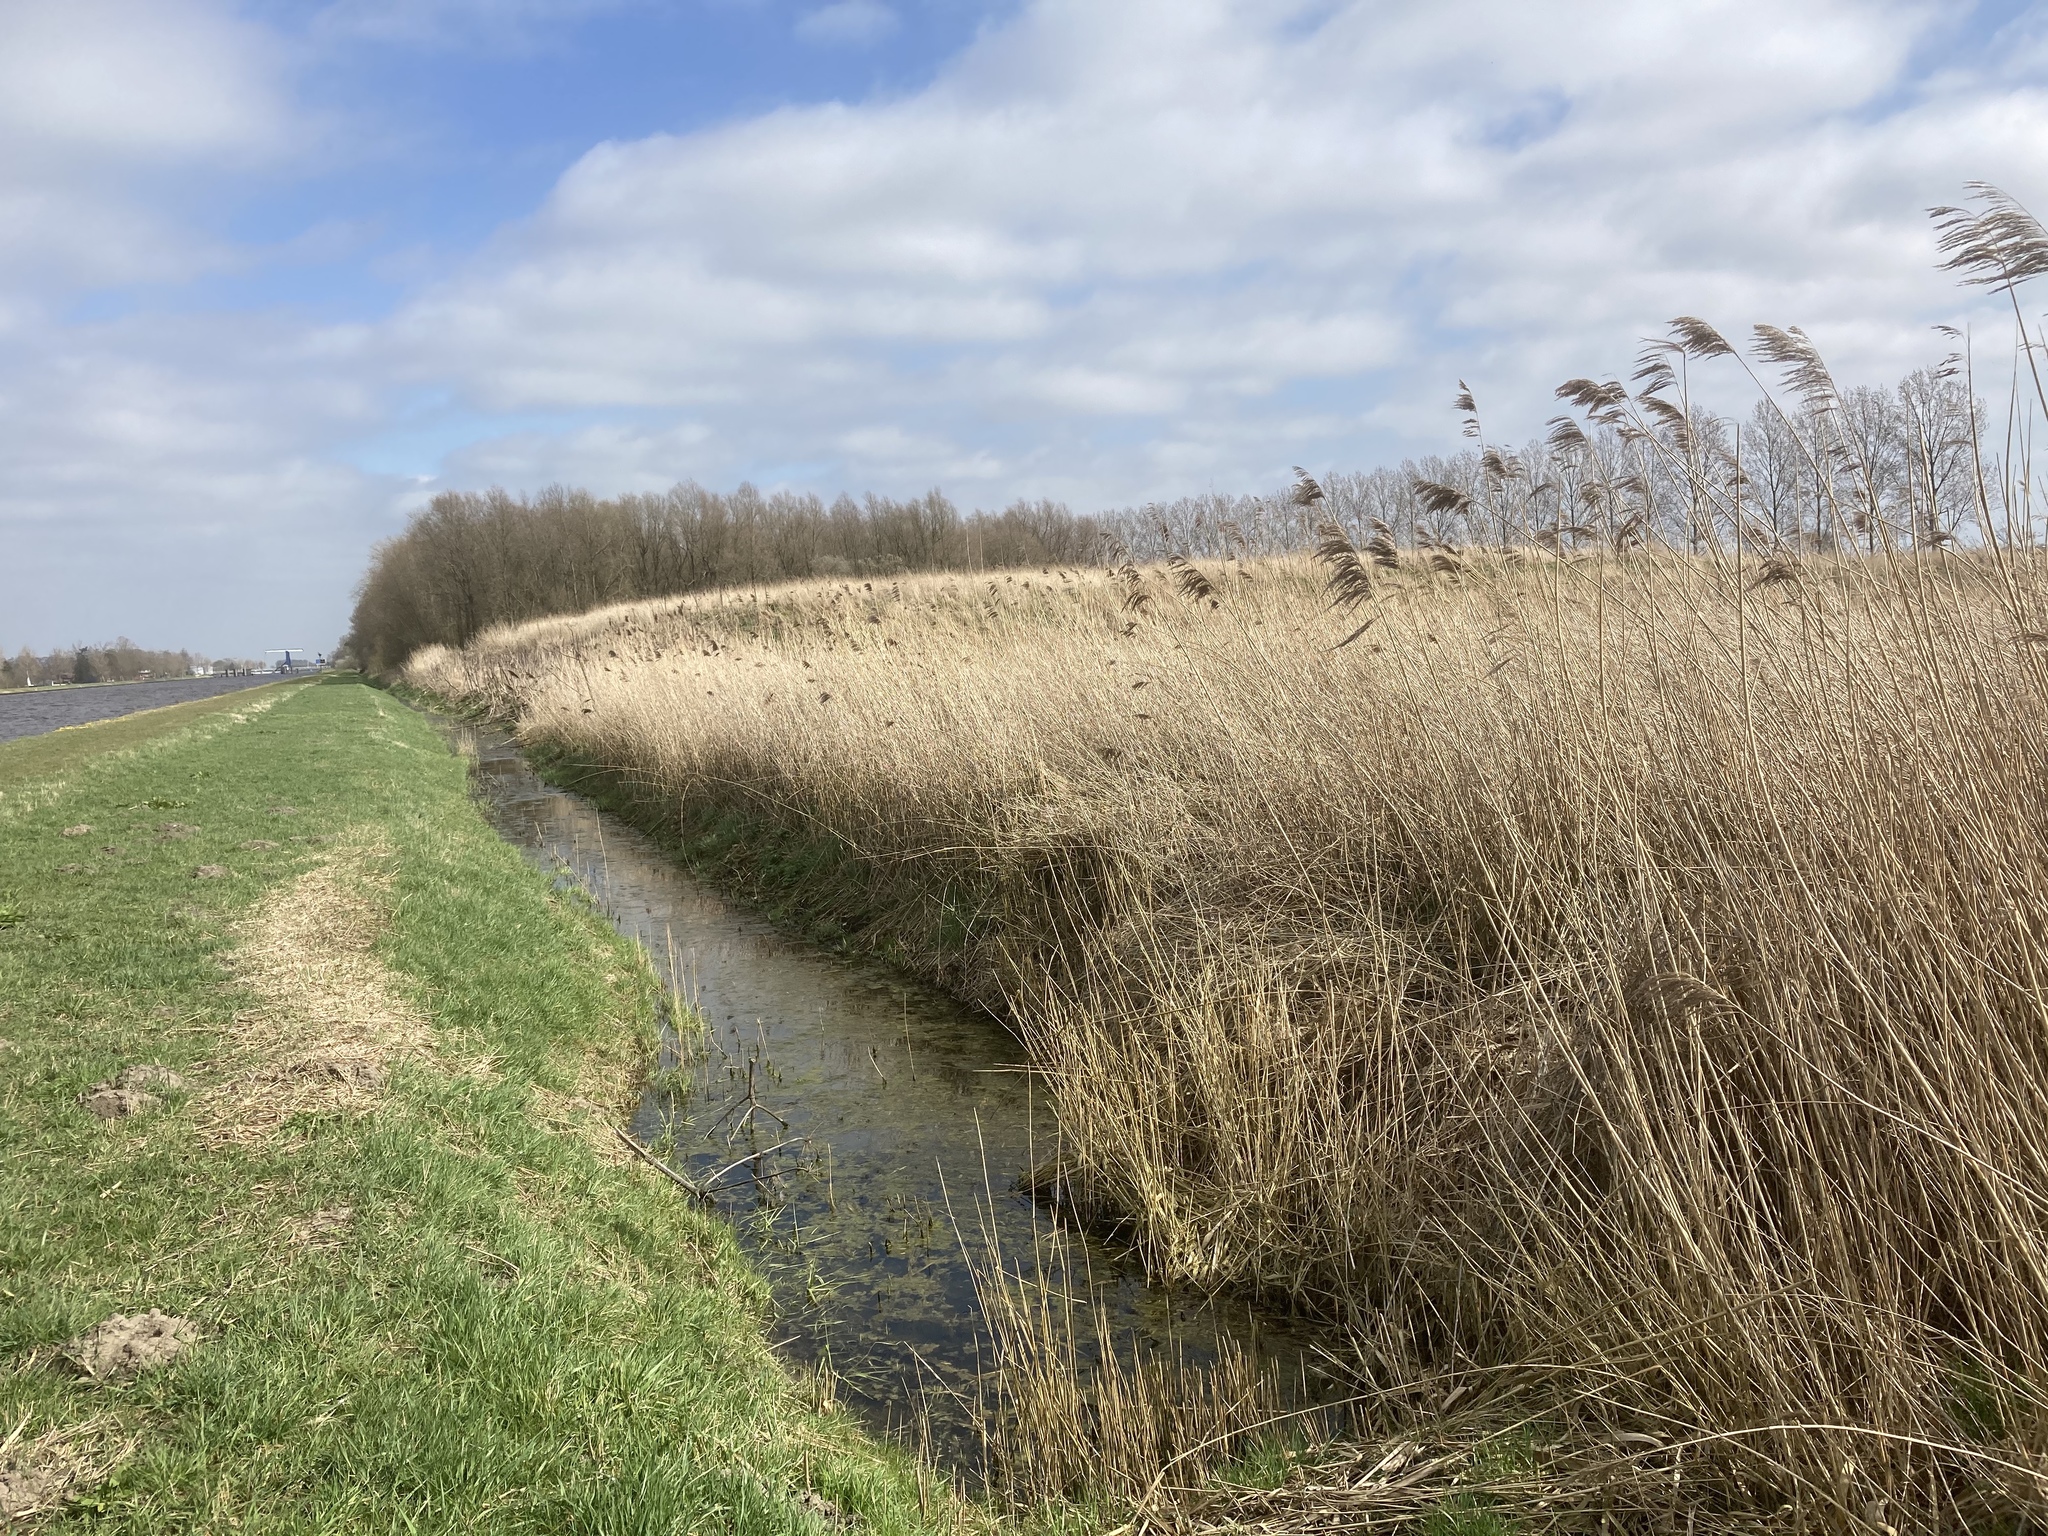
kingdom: Plantae
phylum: Tracheophyta
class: Liliopsida
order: Poales
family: Poaceae
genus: Phragmites
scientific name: Phragmites australis
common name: Common reed
